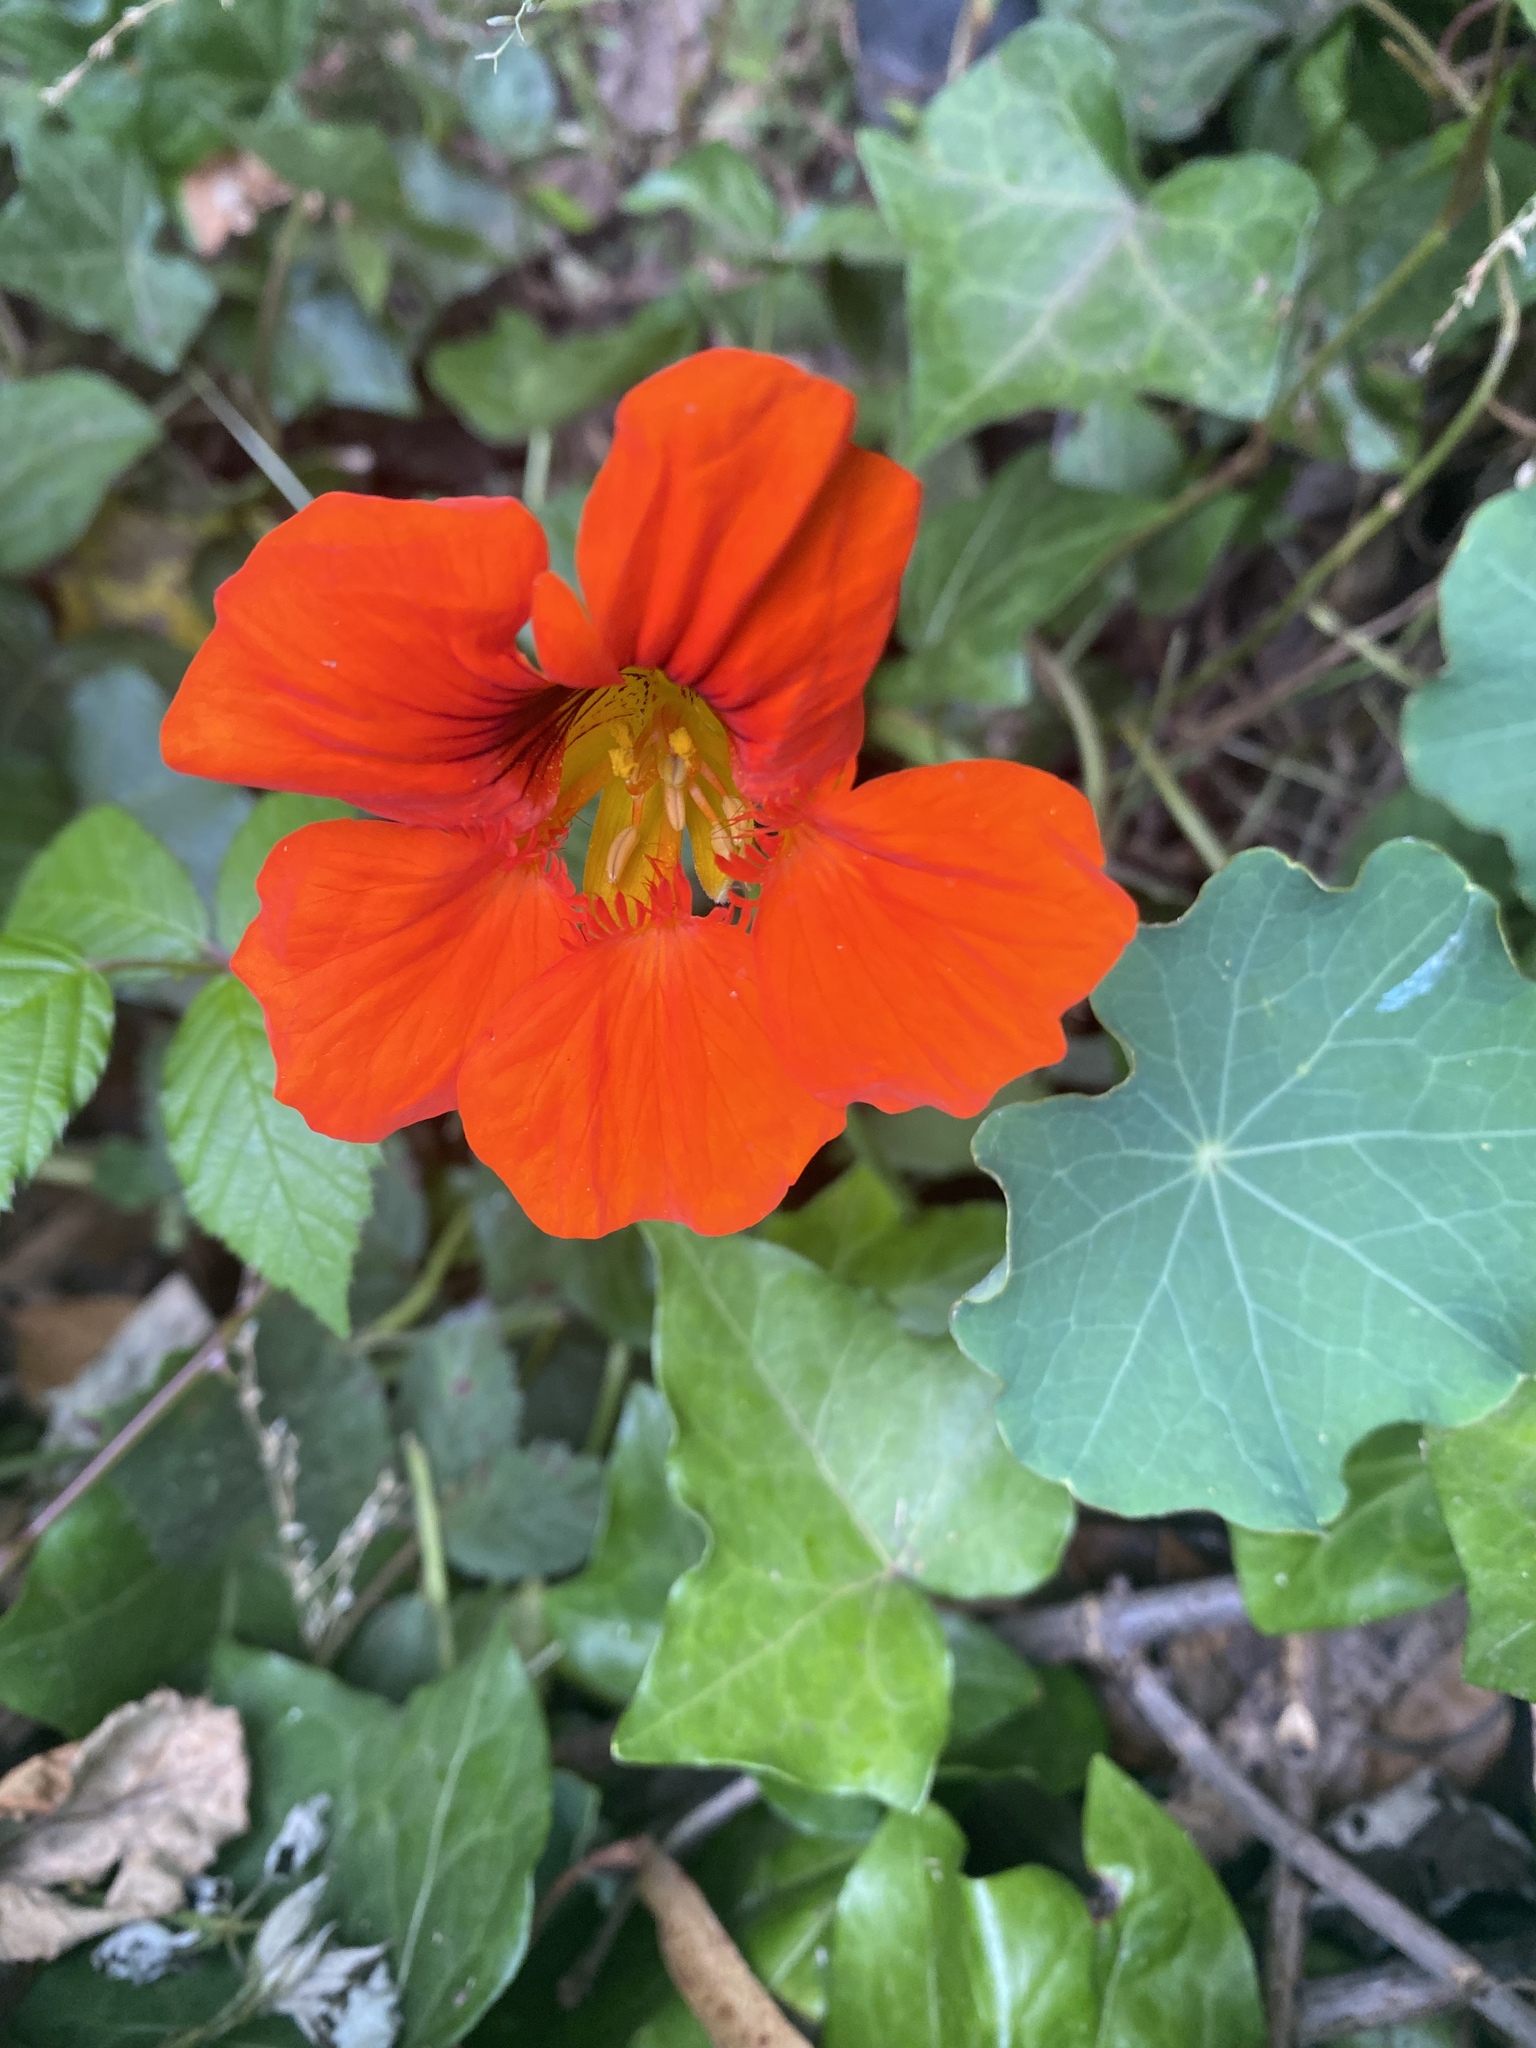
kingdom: Plantae
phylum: Tracheophyta
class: Magnoliopsida
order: Brassicales
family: Tropaeolaceae
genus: Tropaeolum
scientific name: Tropaeolum majus
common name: Nasturtium
